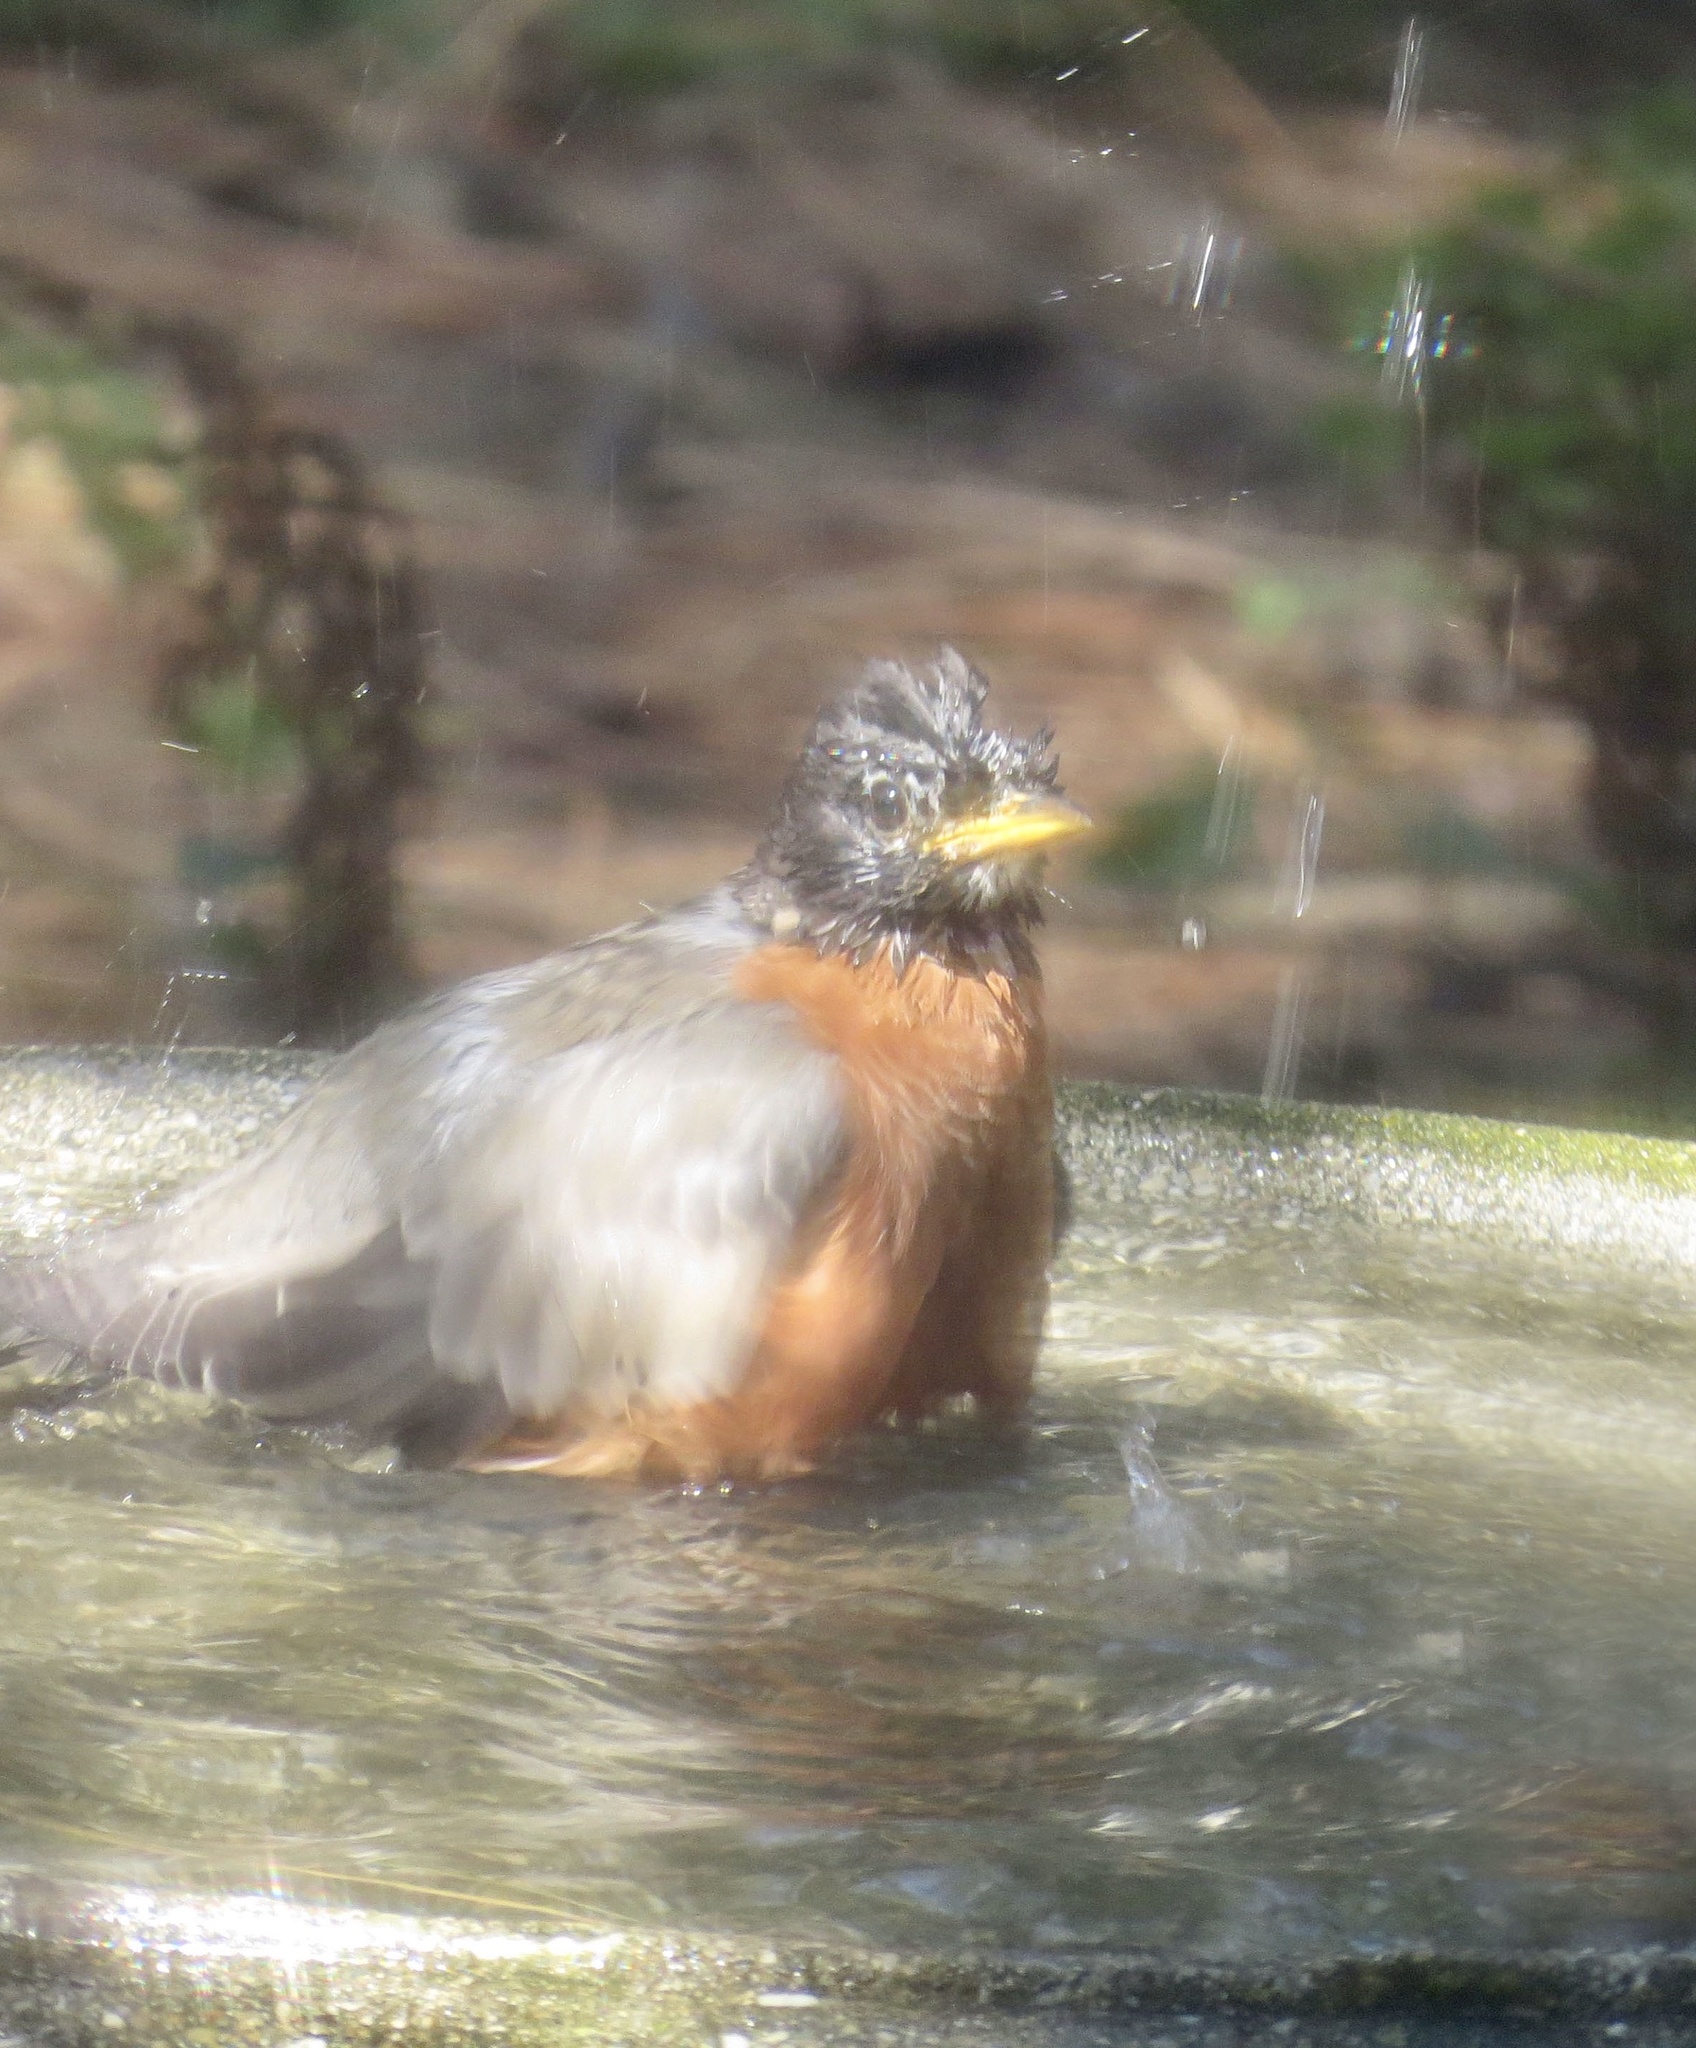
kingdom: Animalia
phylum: Chordata
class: Aves
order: Passeriformes
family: Turdidae
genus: Turdus
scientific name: Turdus migratorius
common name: American robin
